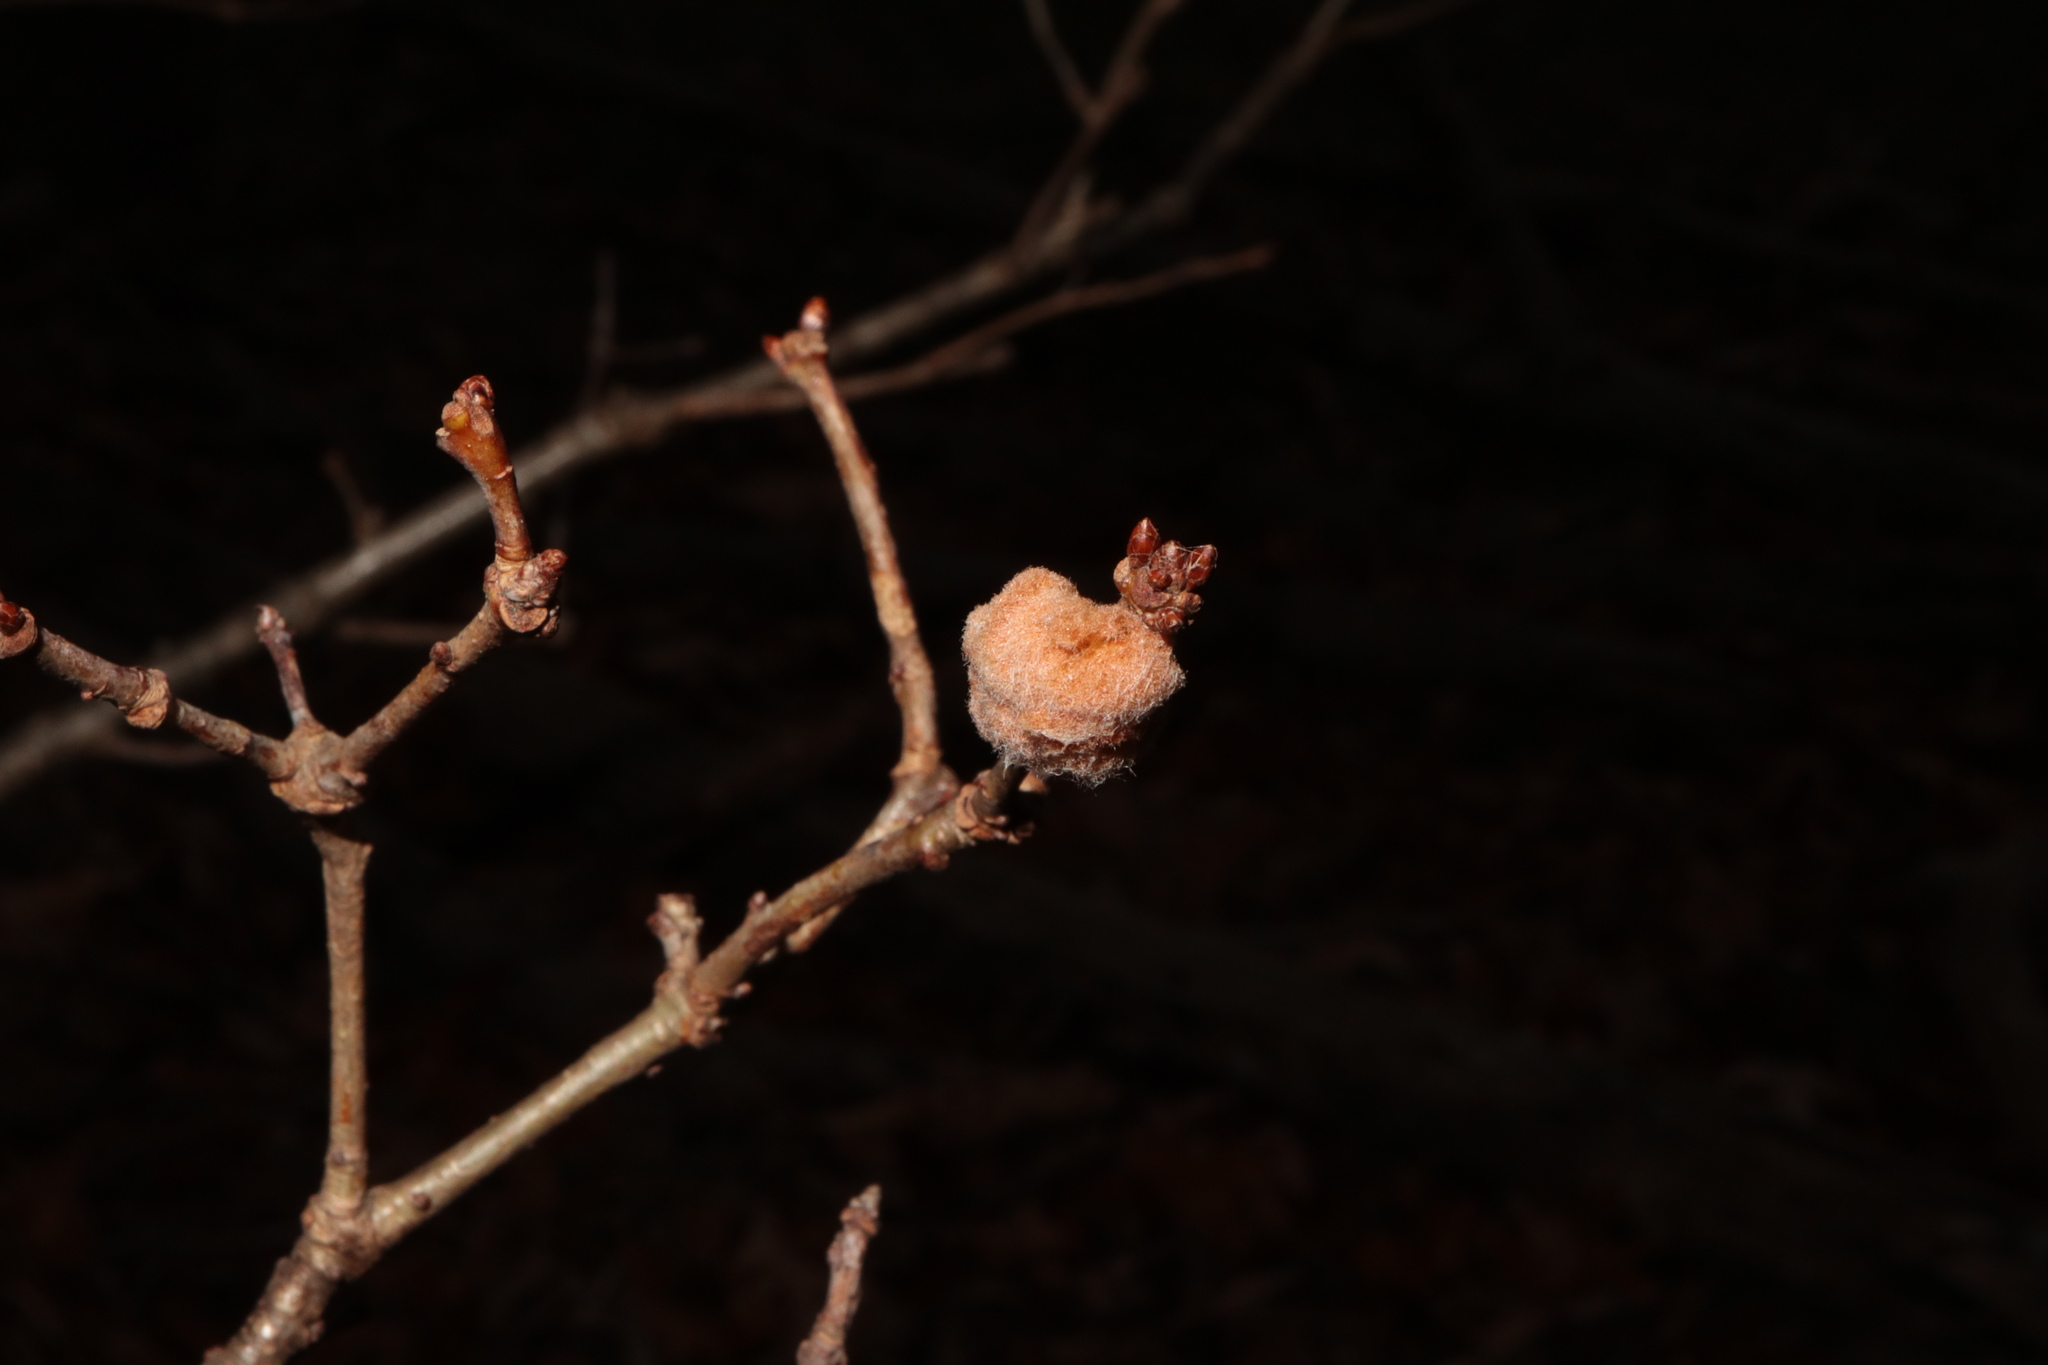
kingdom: Animalia
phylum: Arthropoda
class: Insecta
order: Hymenoptera
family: Cynipidae
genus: Andricus
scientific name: Andricus quercusflocci
